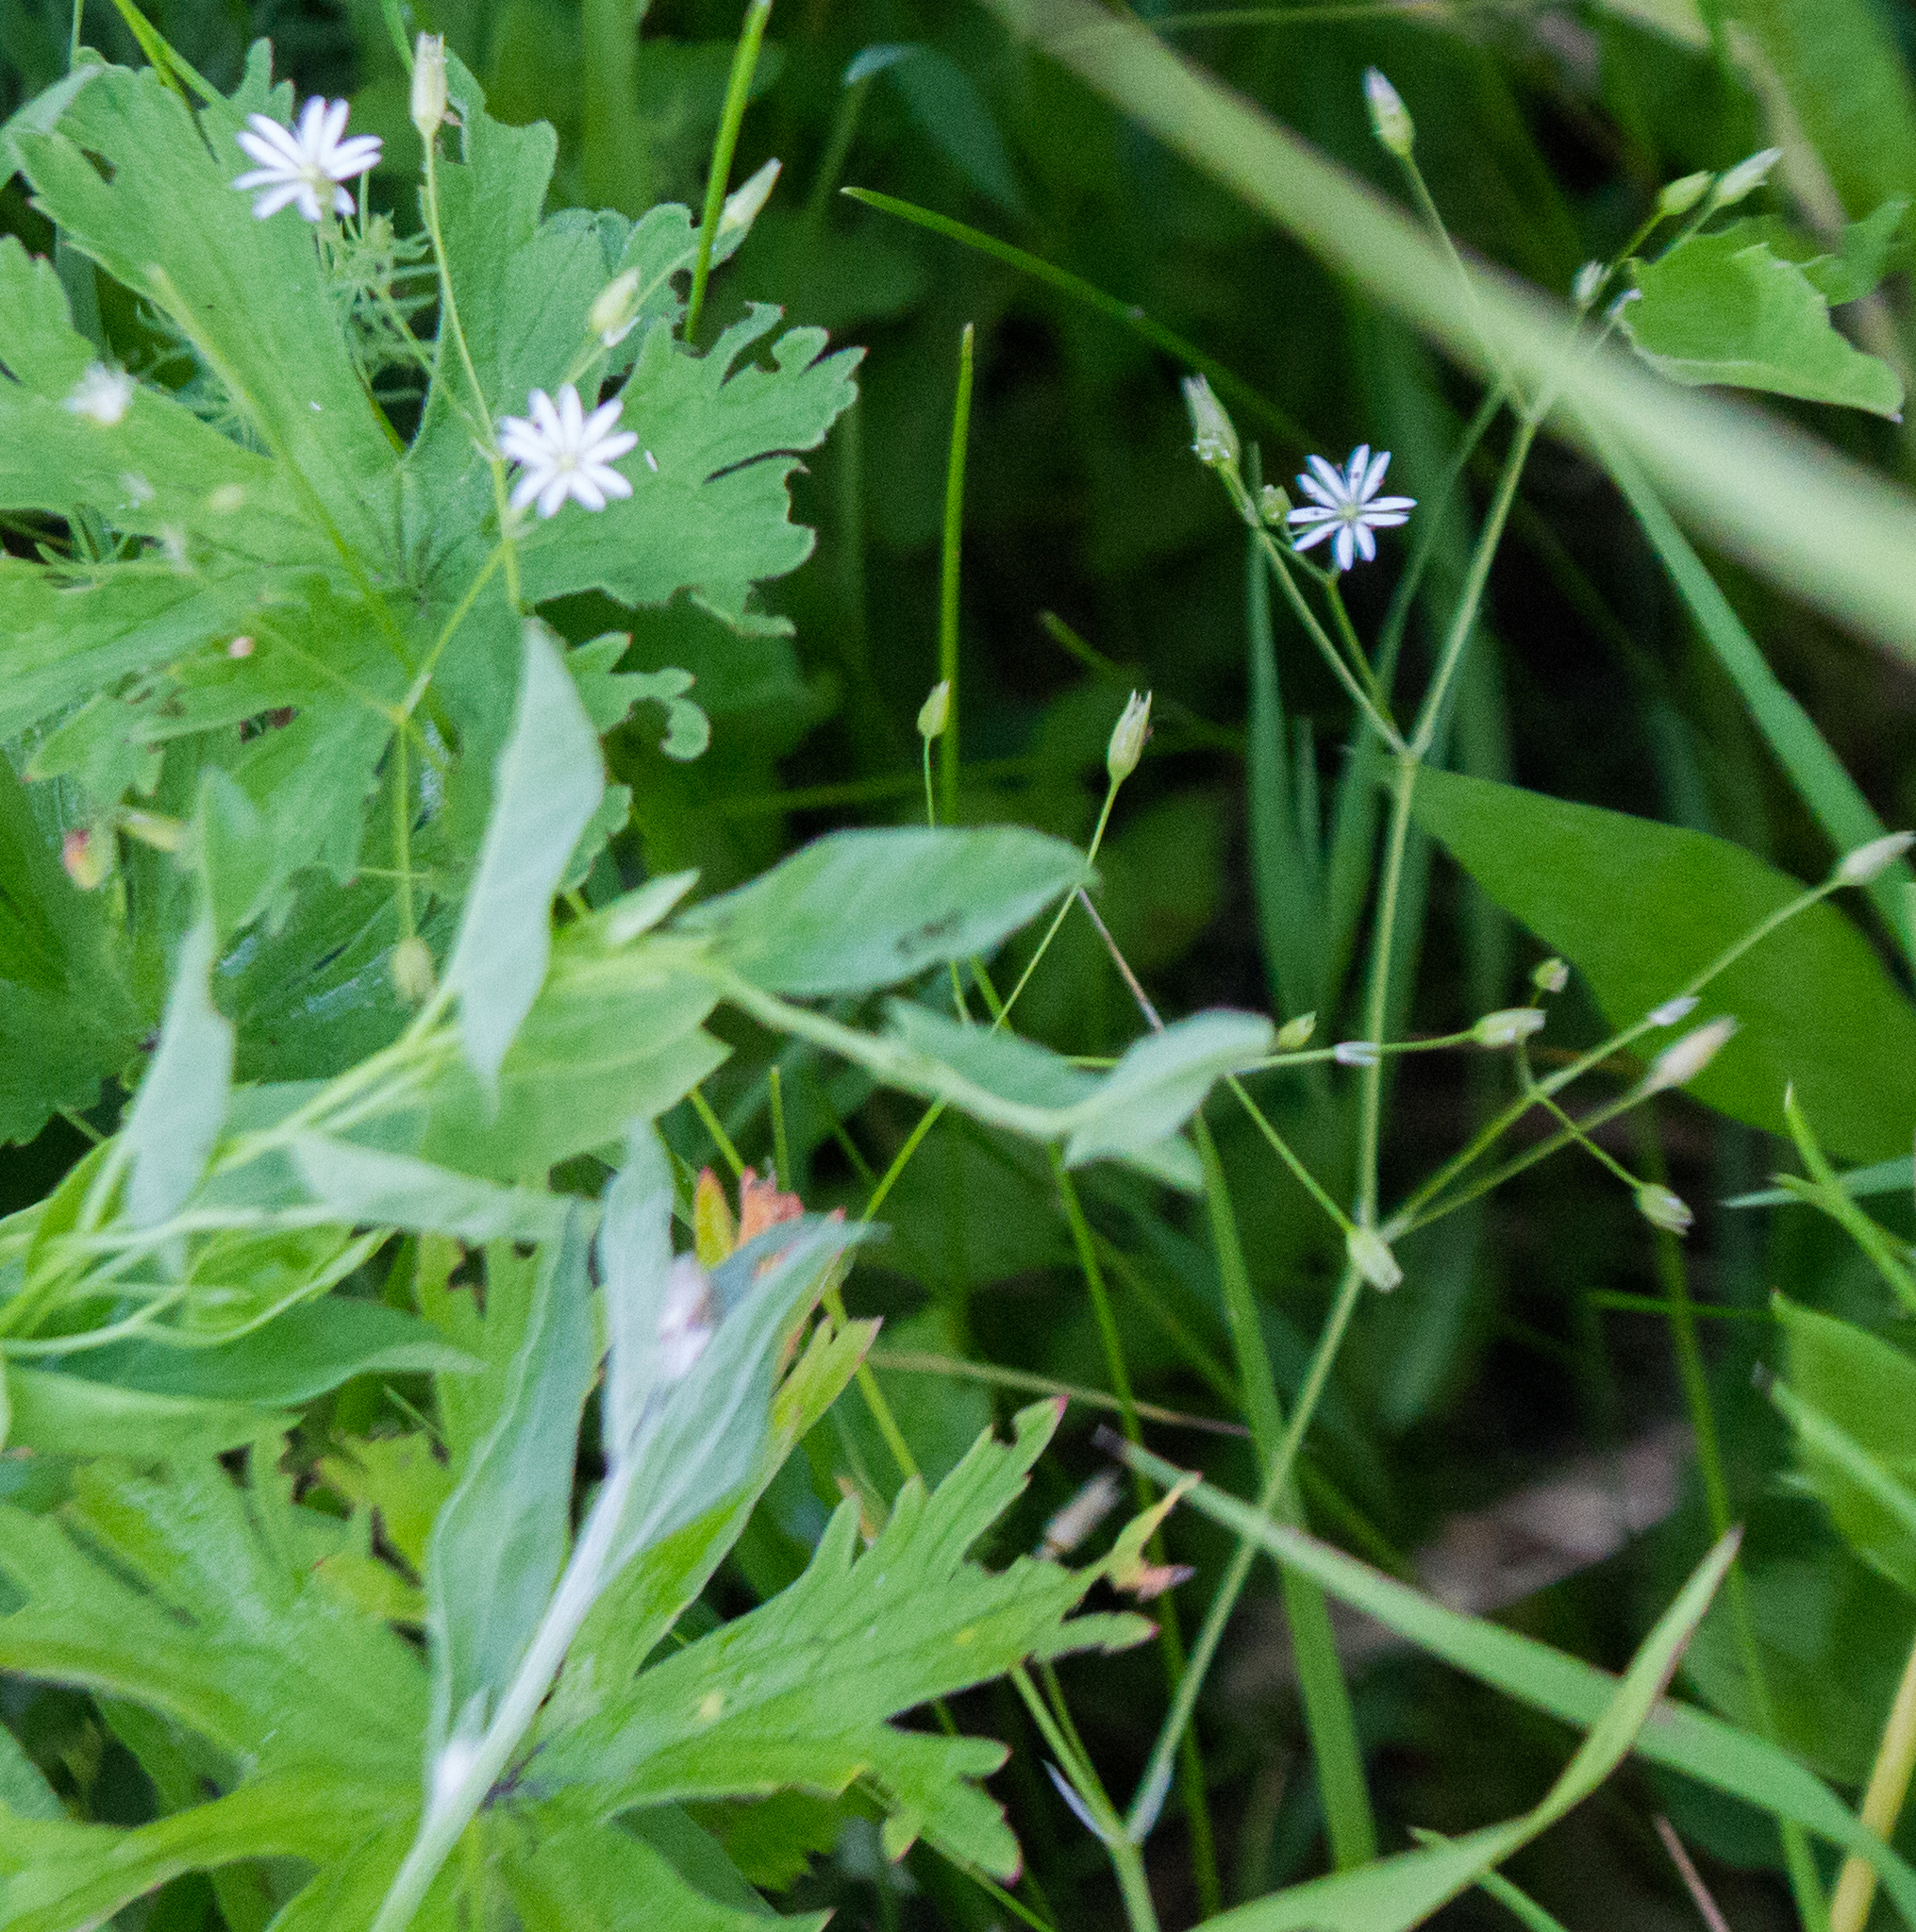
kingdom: Plantae
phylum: Tracheophyta
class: Magnoliopsida
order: Caryophyllales
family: Caryophyllaceae
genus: Stellaria
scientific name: Stellaria graminea
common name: Grass-like starwort
